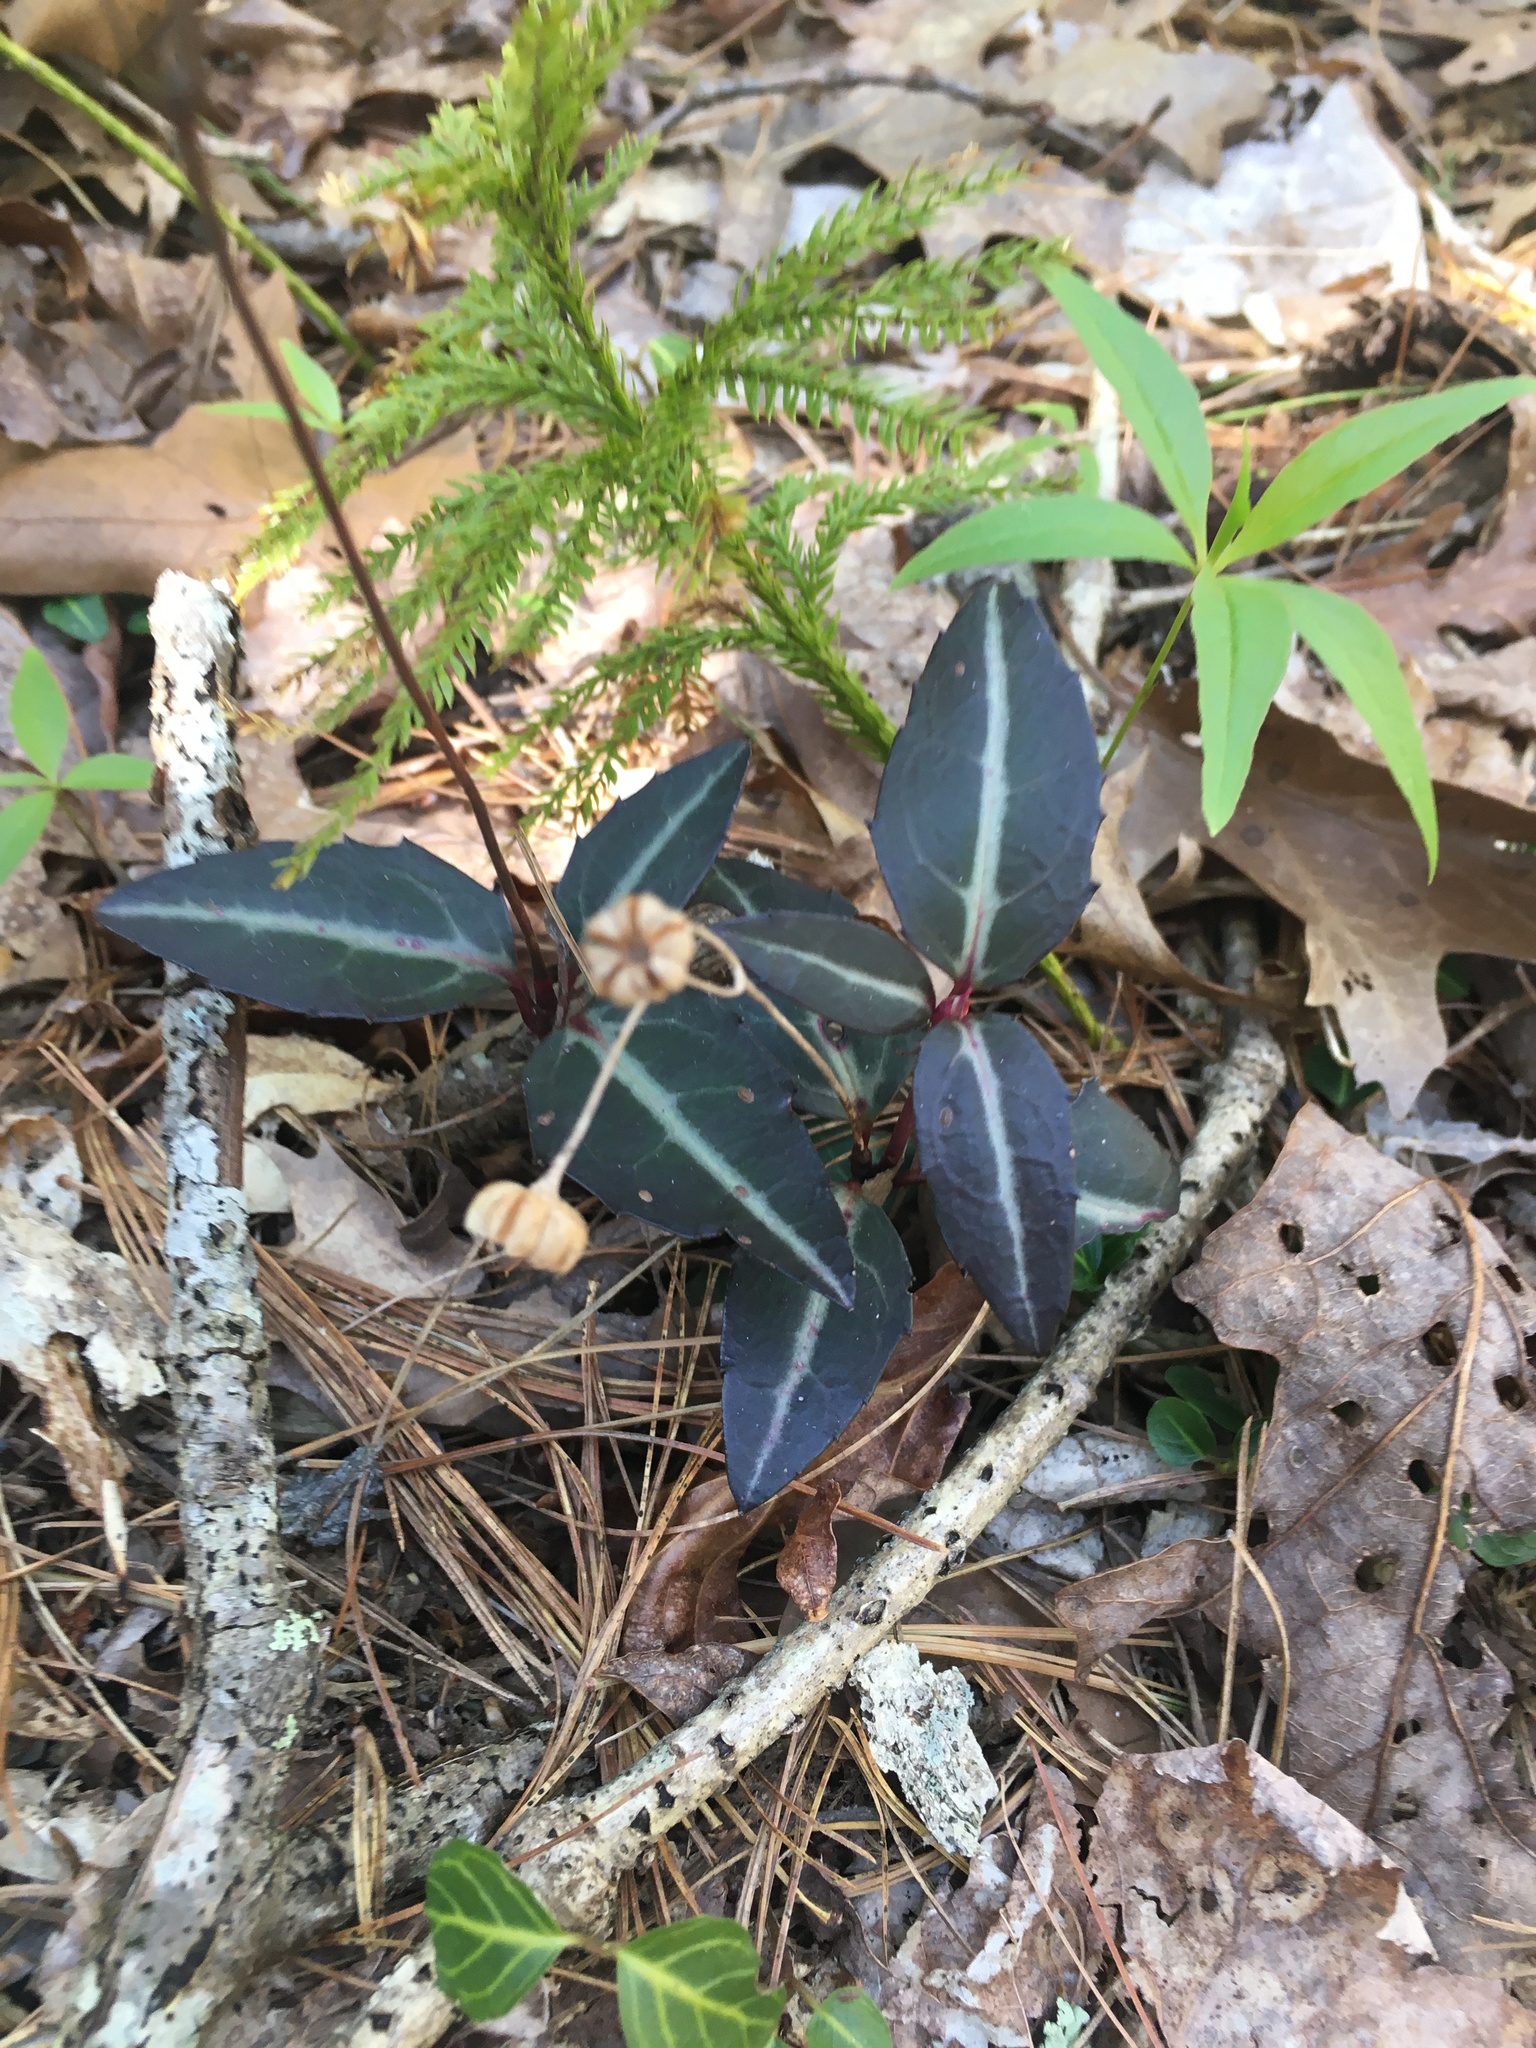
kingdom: Plantae
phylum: Tracheophyta
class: Magnoliopsida
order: Ericales
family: Ericaceae
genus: Chimaphila
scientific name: Chimaphila maculata
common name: Spotted pipsissewa
